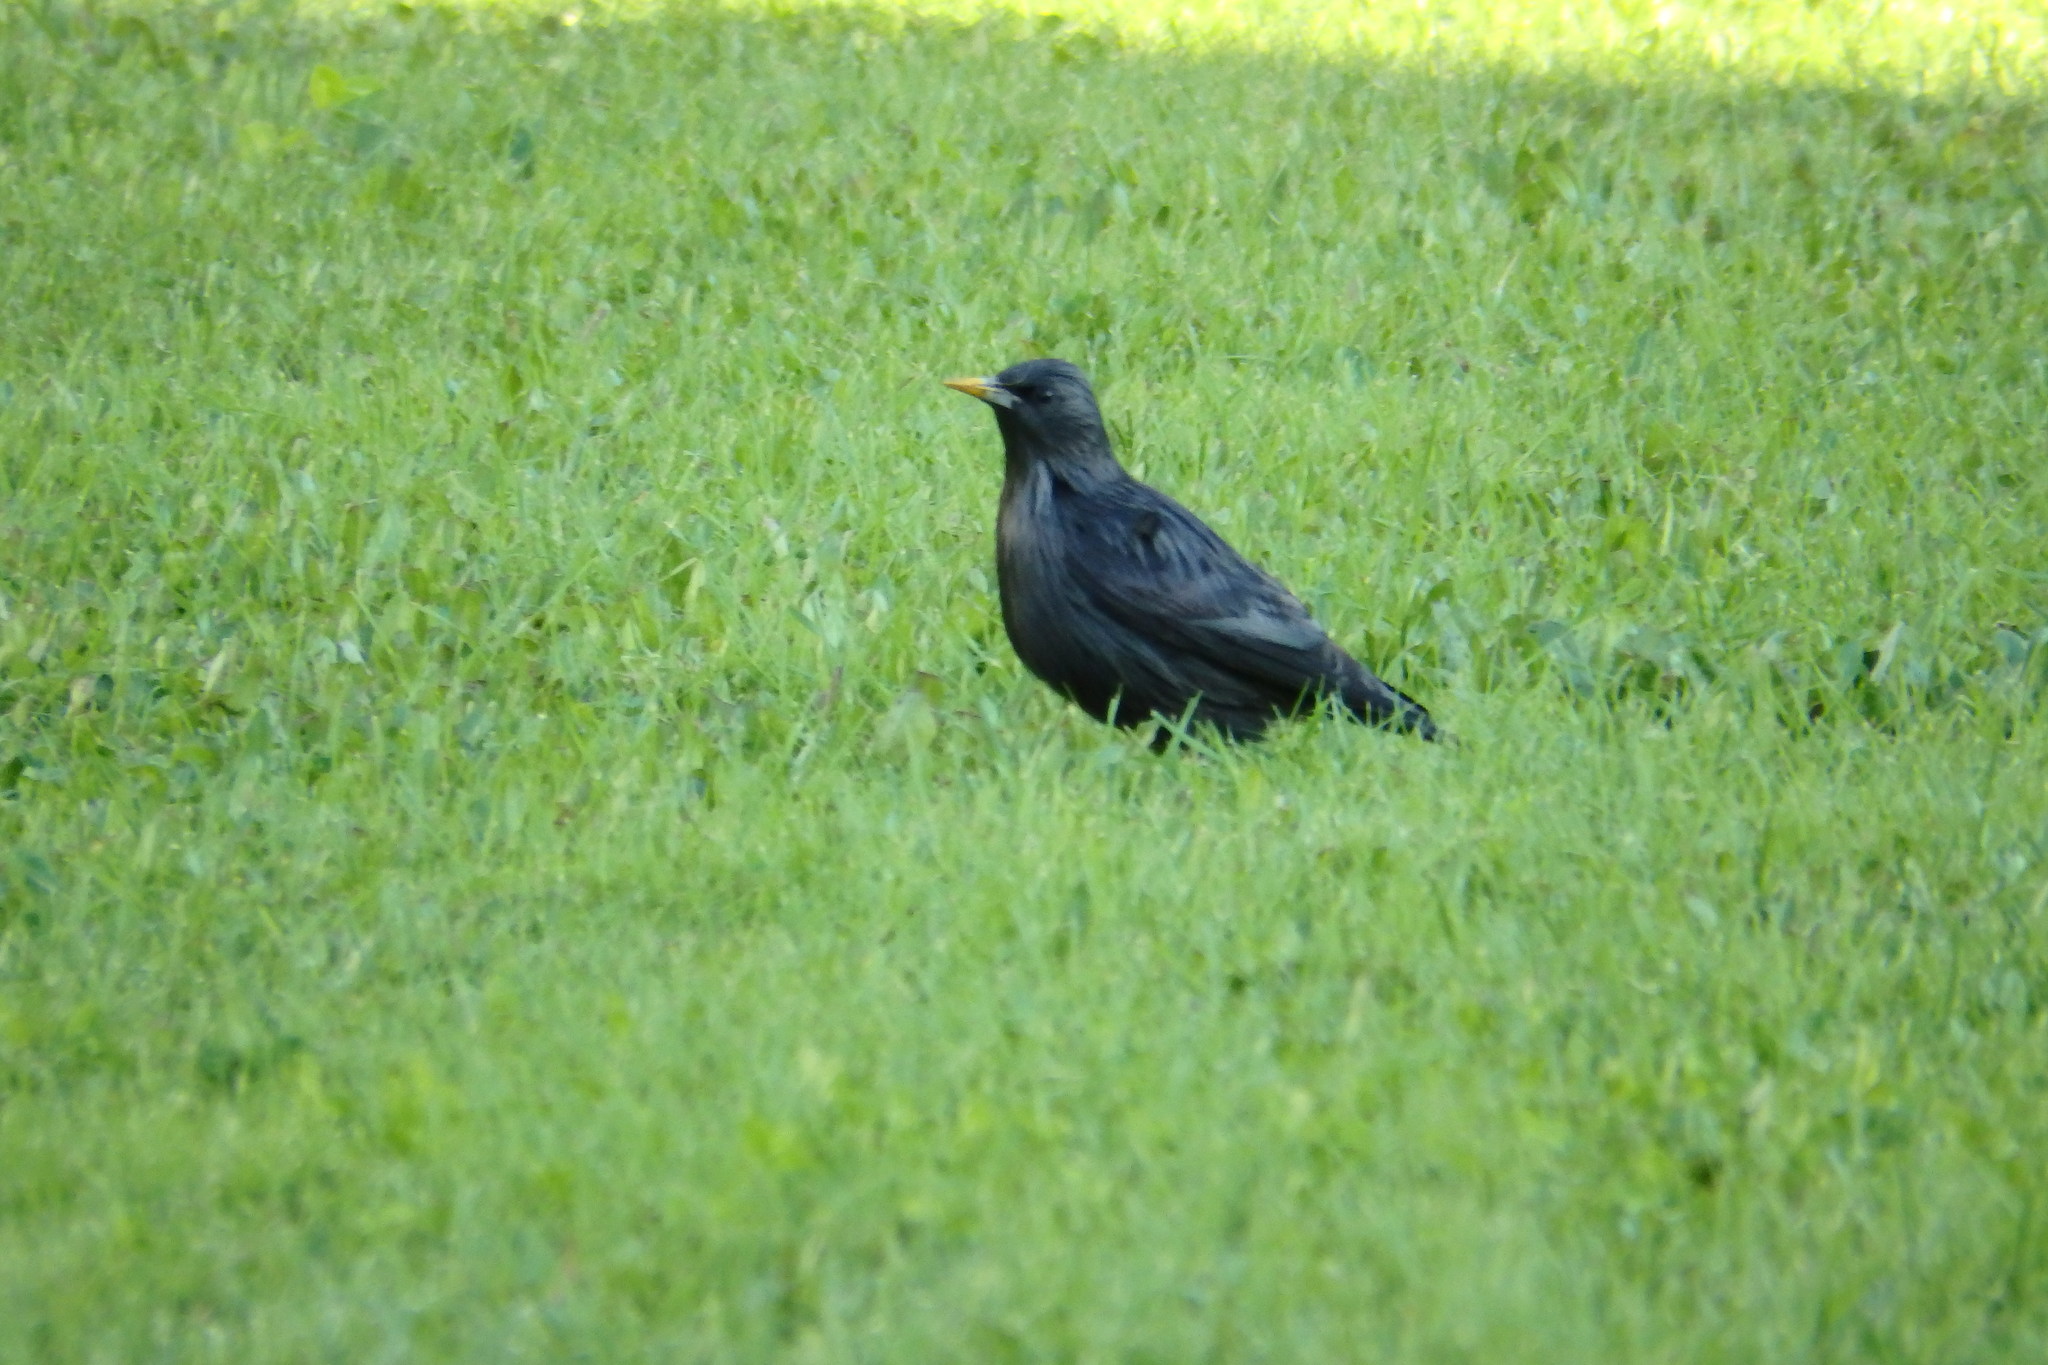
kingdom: Animalia
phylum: Chordata
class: Aves
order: Passeriformes
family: Sturnidae
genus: Sturnus
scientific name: Sturnus unicolor
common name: Spotless starling
